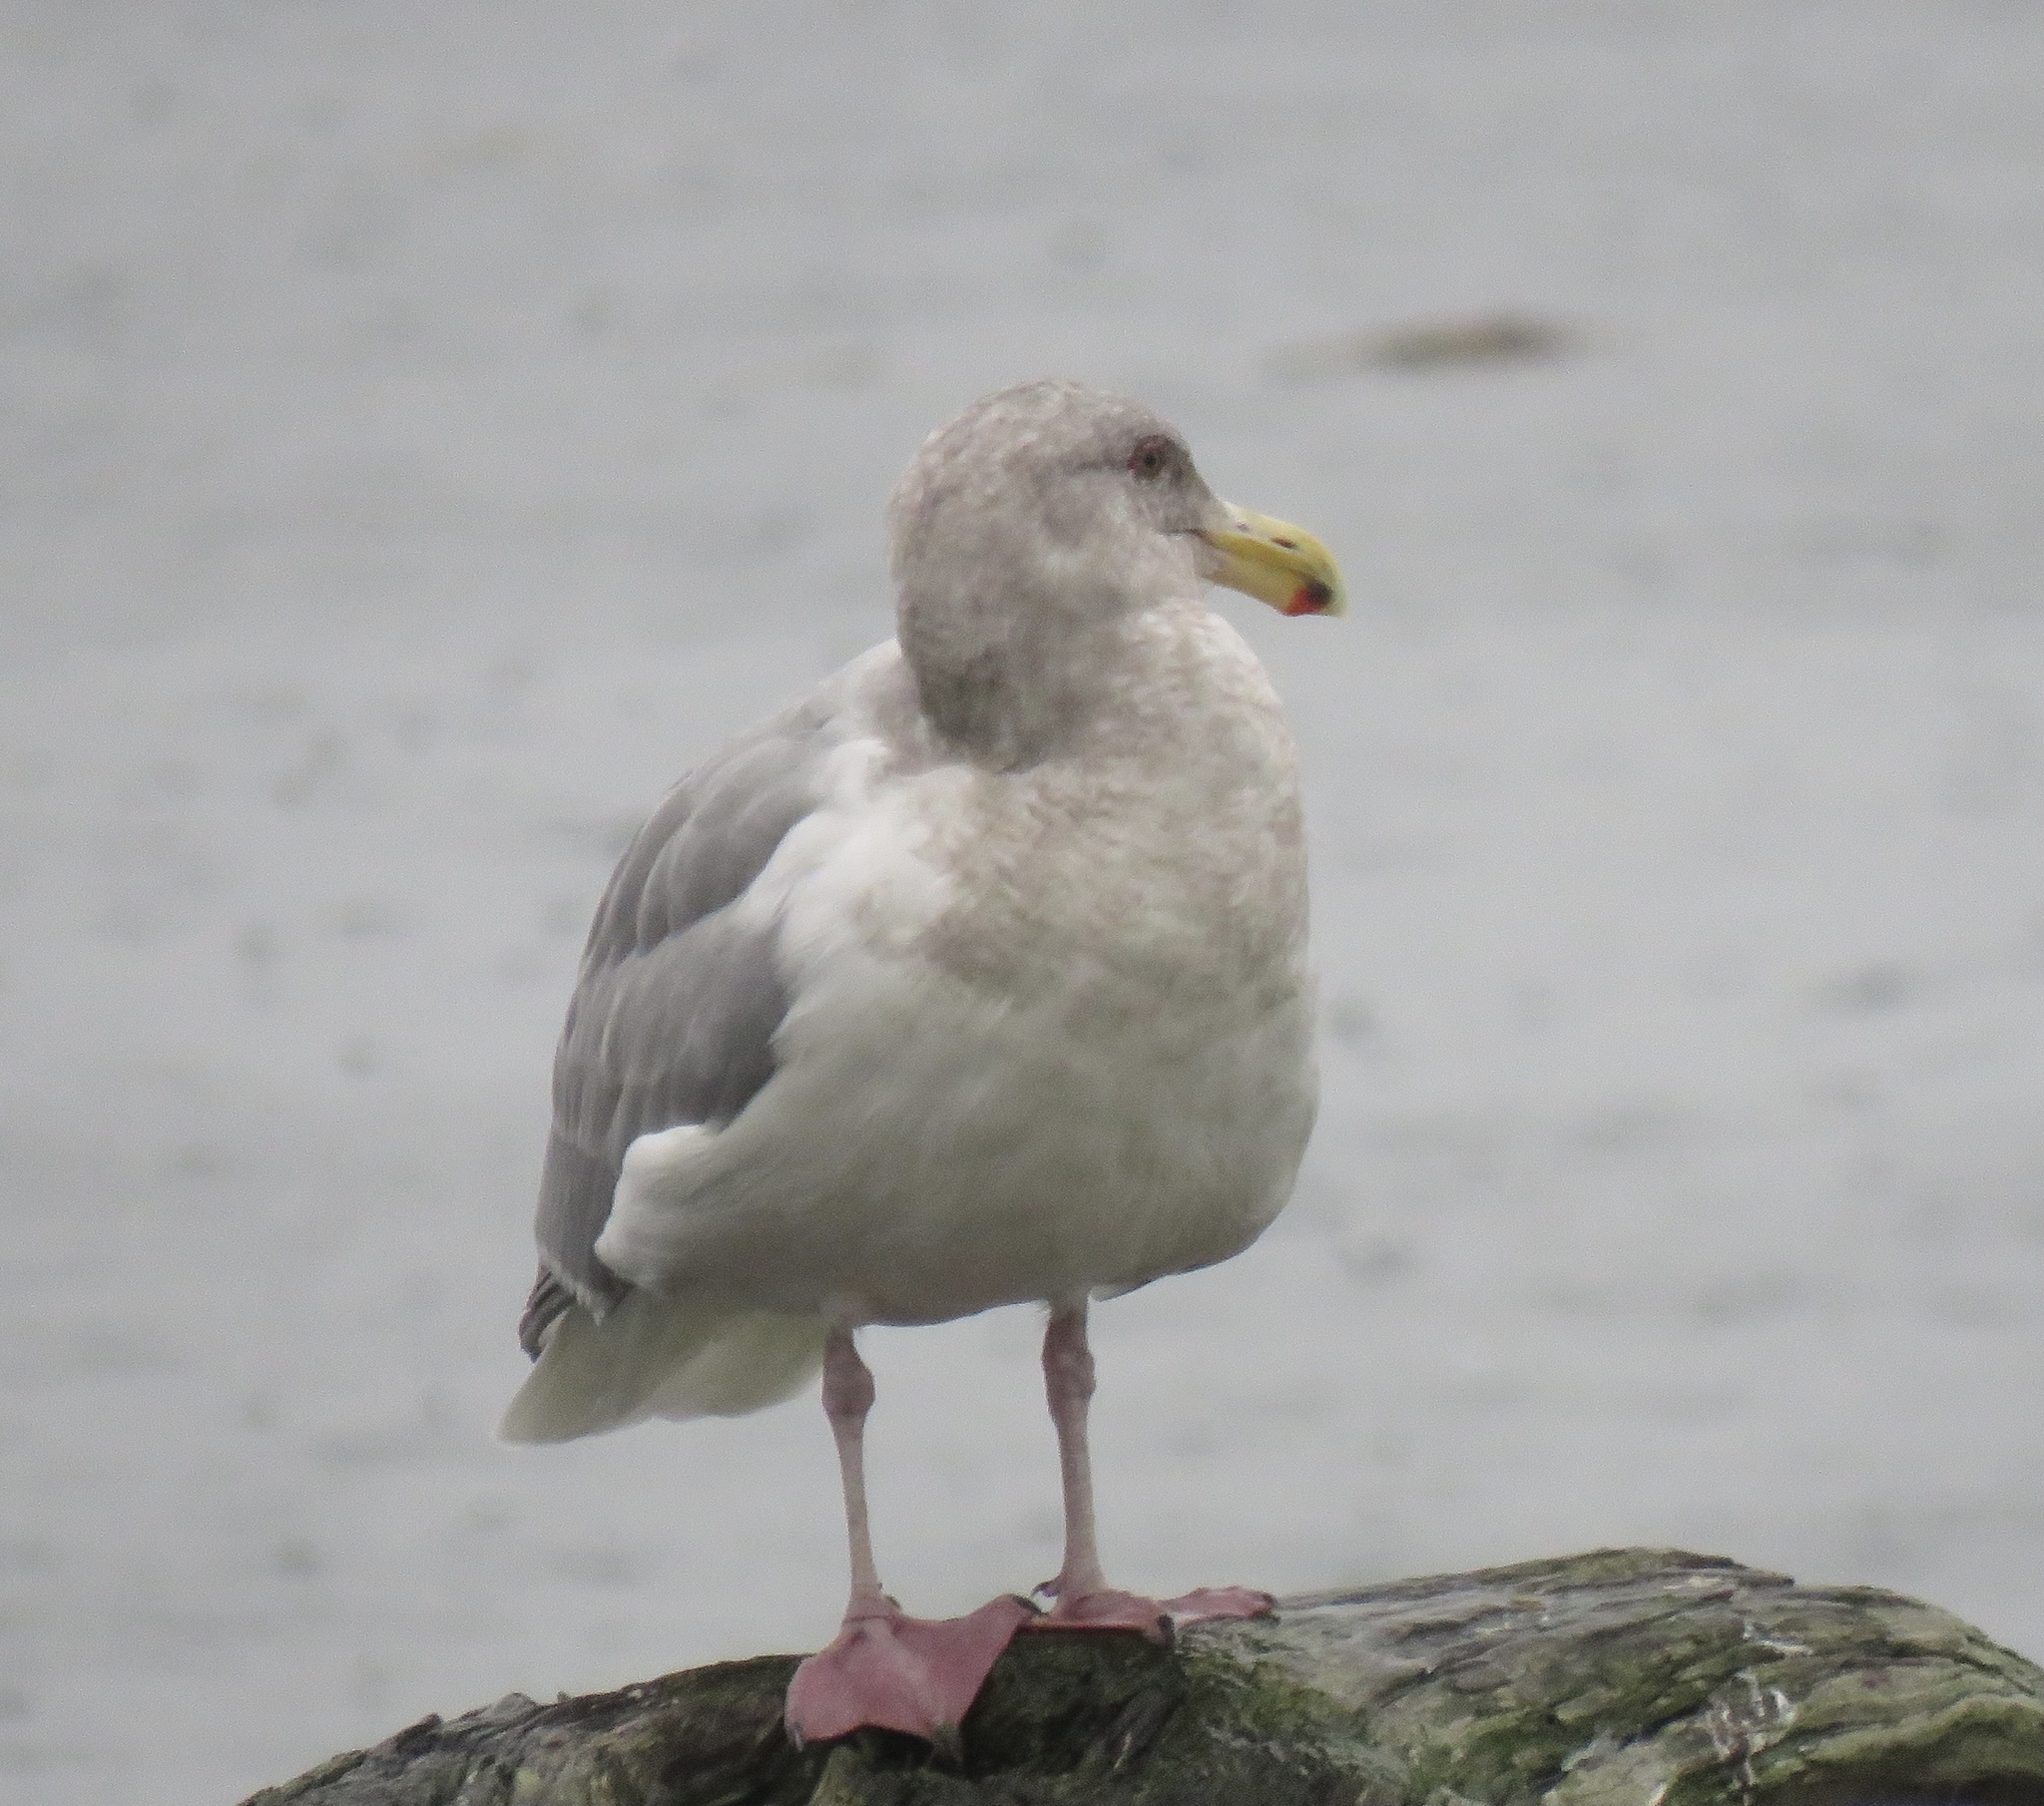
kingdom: Animalia
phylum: Chordata
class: Aves
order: Charadriiformes
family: Laridae
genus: Larus
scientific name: Larus
